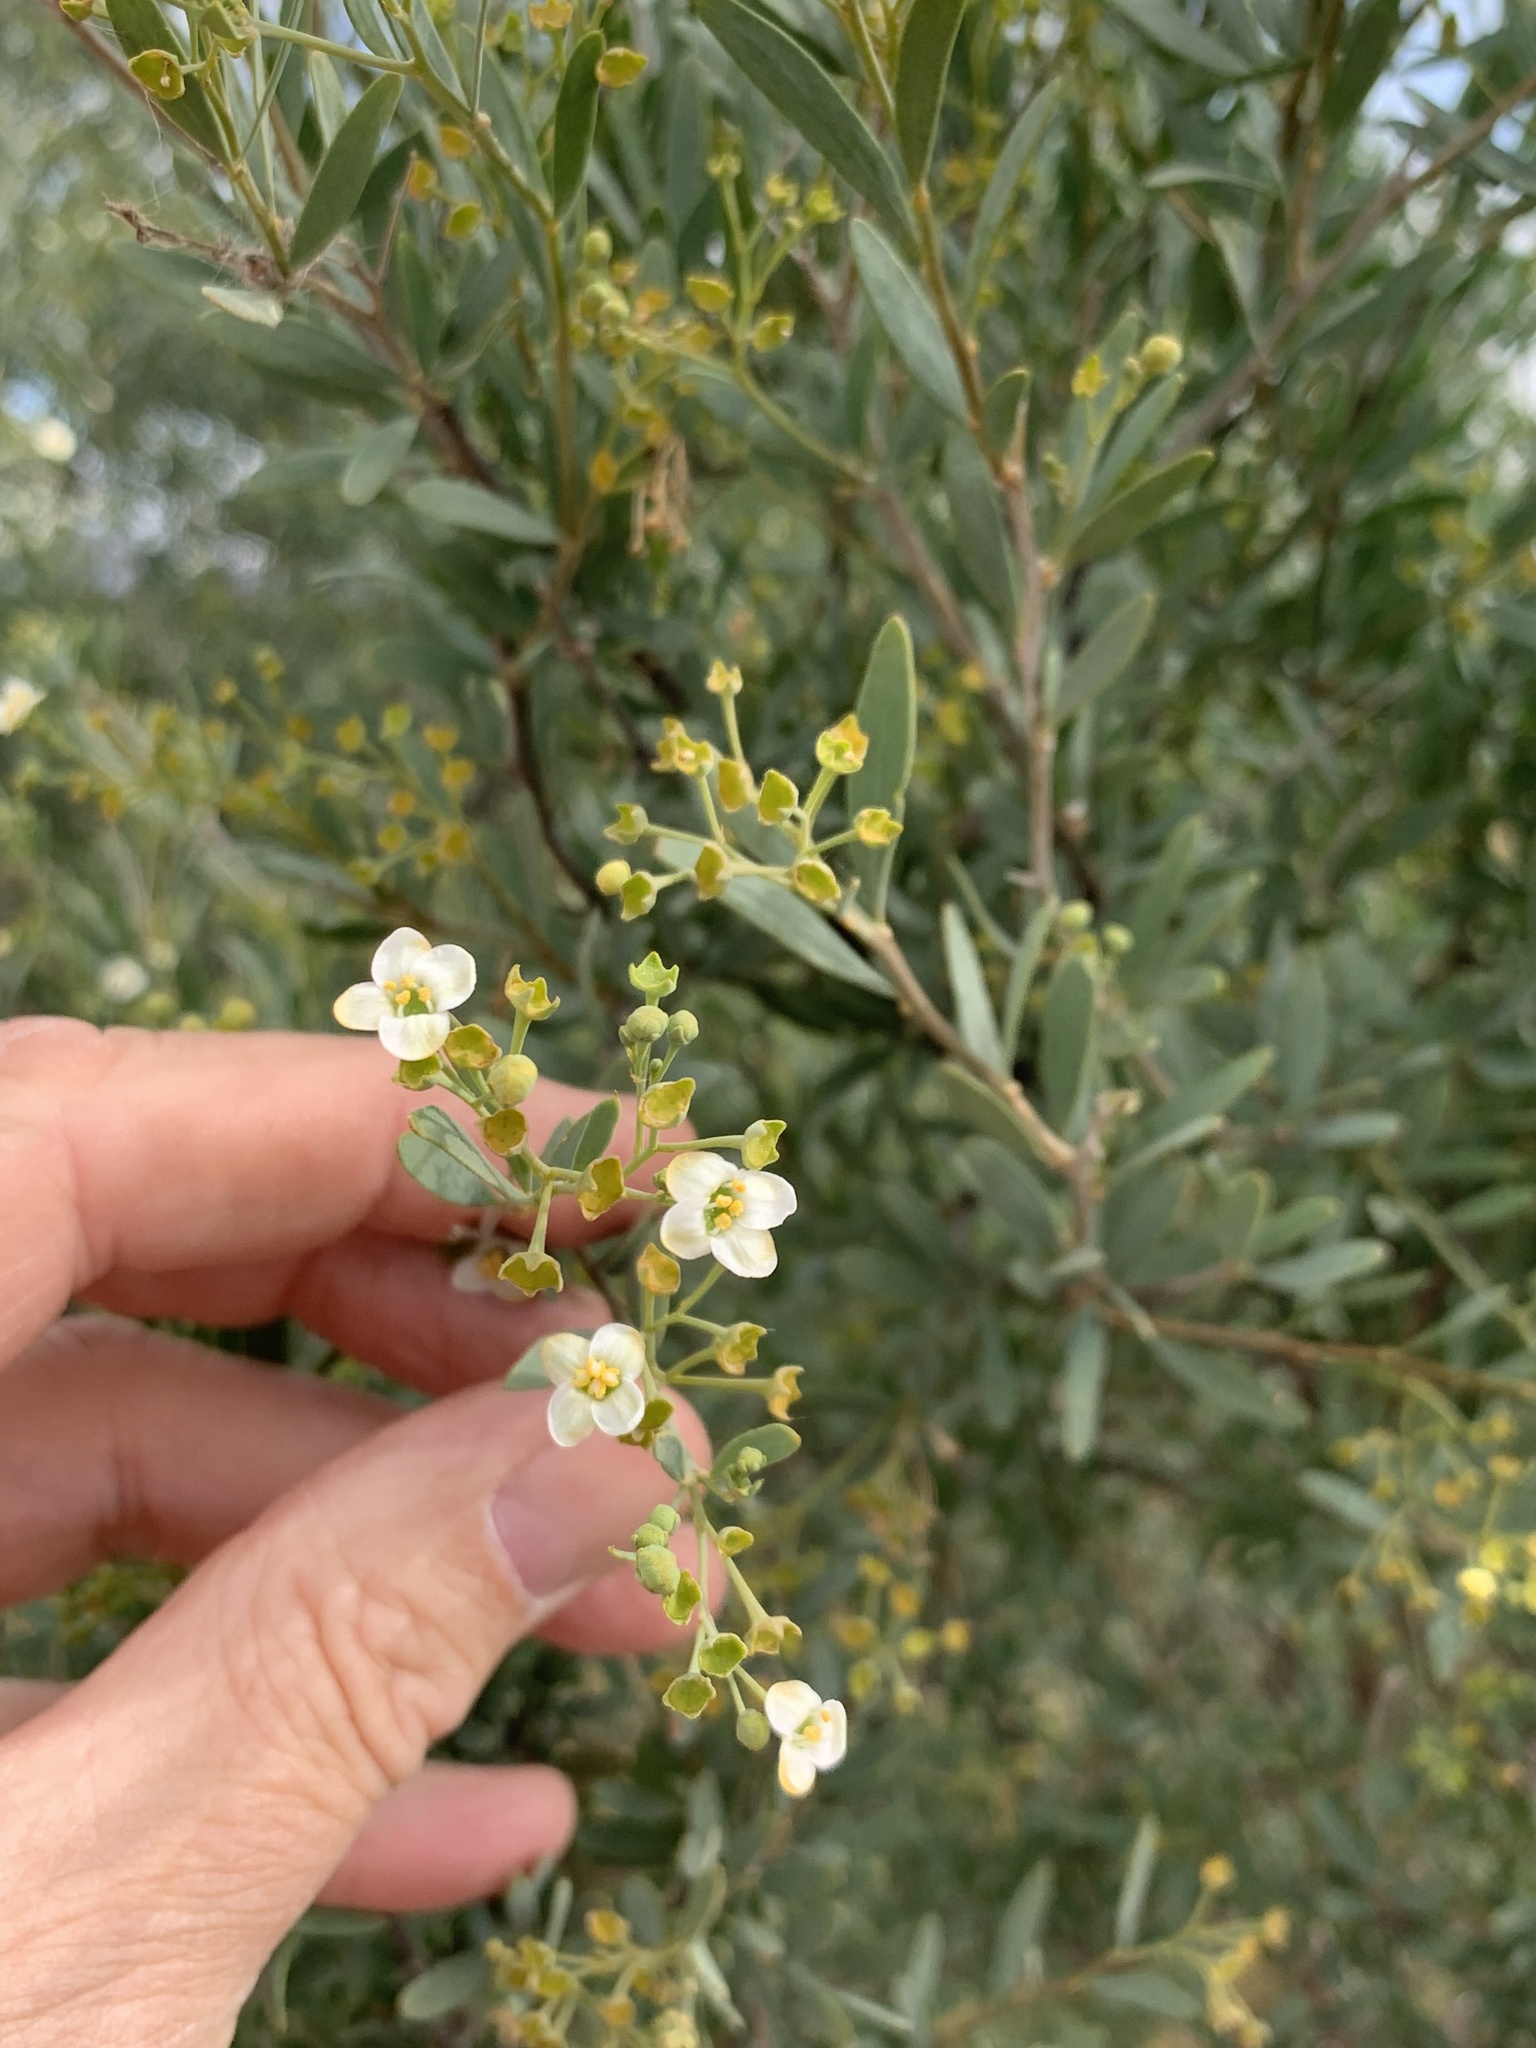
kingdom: Plantae
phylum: Tracheophyta
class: Magnoliopsida
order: Solanales
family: Montiniaceae
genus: Montinia
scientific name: Montinia caryophyllacea
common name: Wild clove-bush
